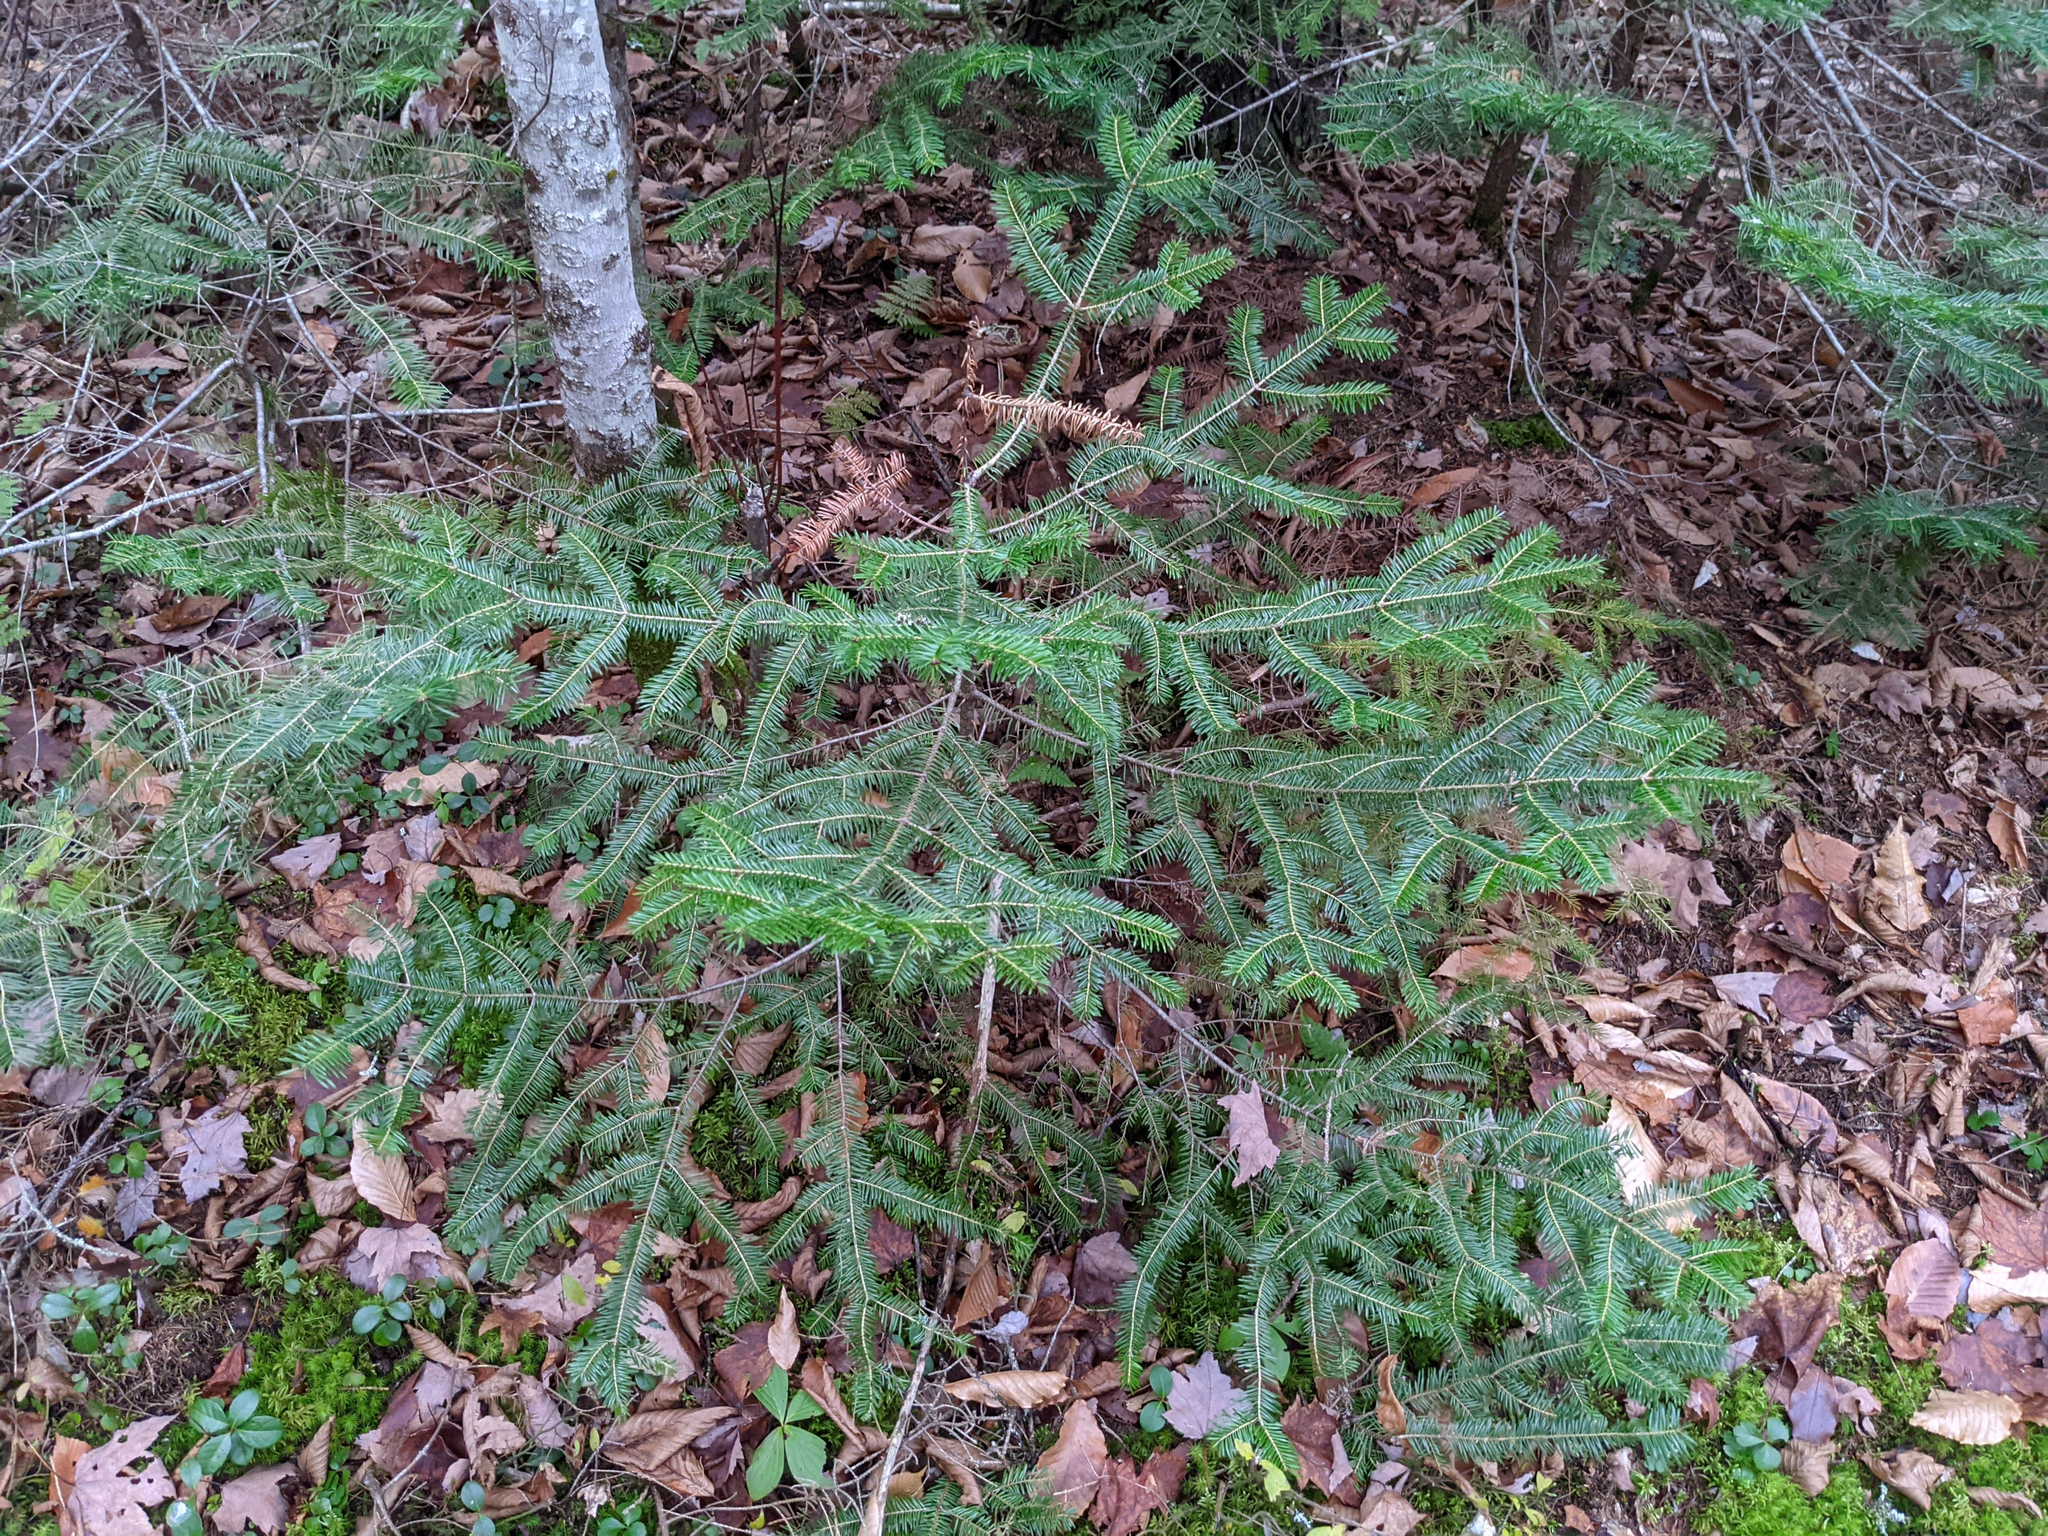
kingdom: Plantae
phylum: Tracheophyta
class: Pinopsida
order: Pinales
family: Pinaceae
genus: Abies
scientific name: Abies balsamea
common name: Balsam fir
